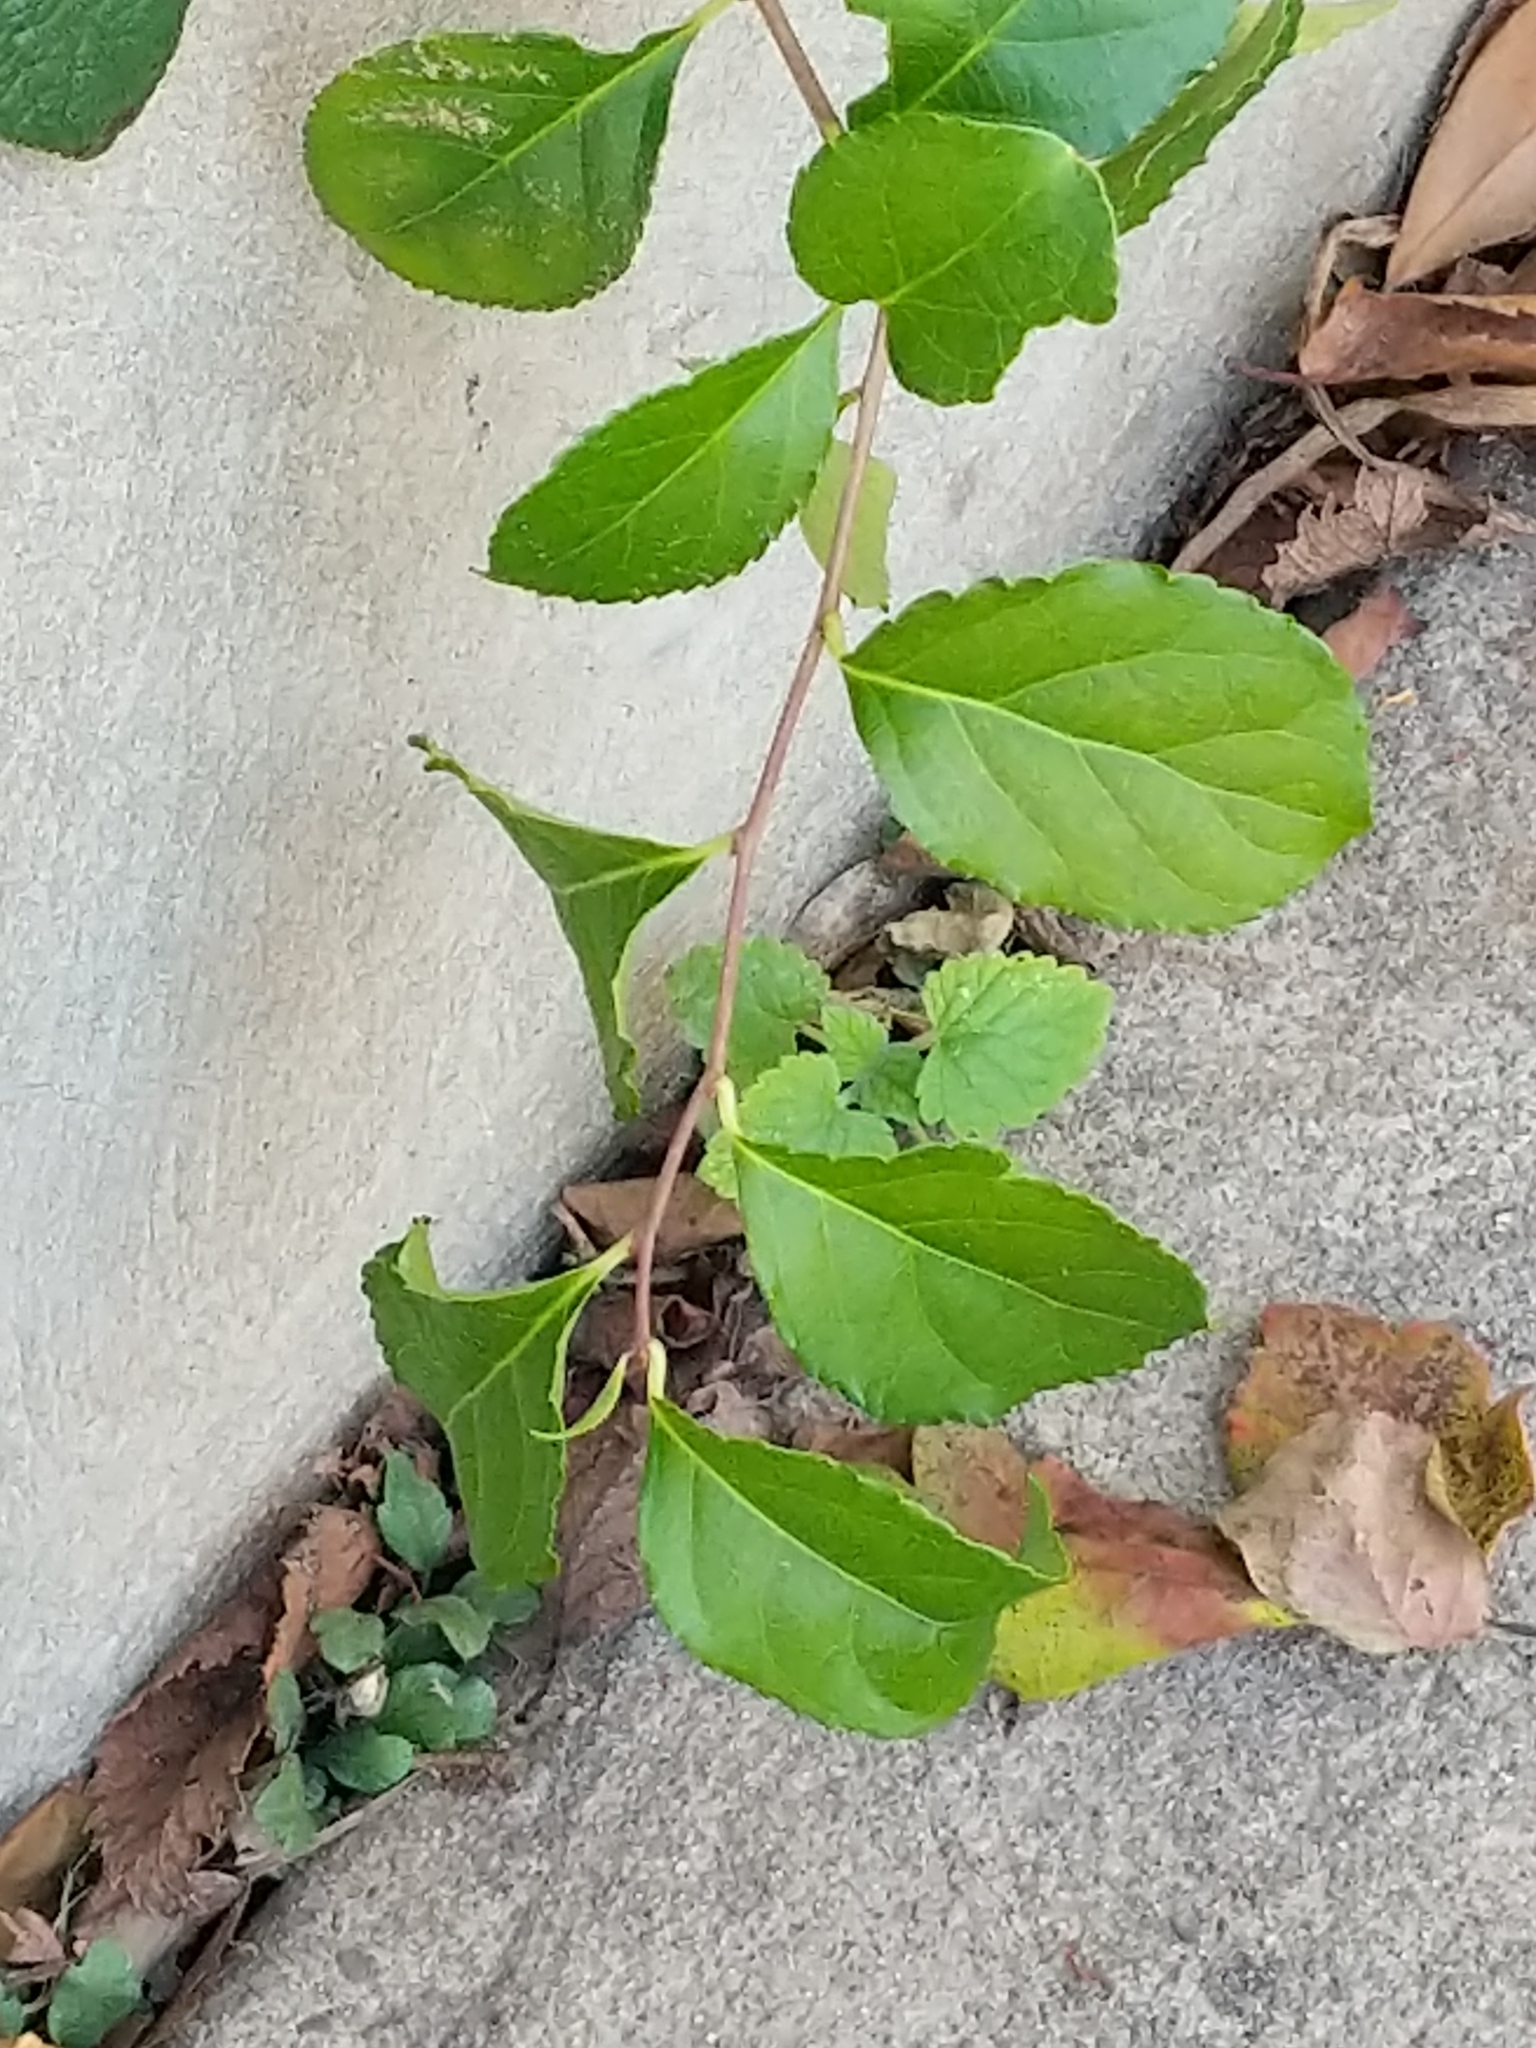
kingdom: Plantae
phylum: Tracheophyta
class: Magnoliopsida
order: Celastrales
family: Celastraceae
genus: Celastrus
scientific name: Celastrus orbiculatus
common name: Oriental bittersweet
